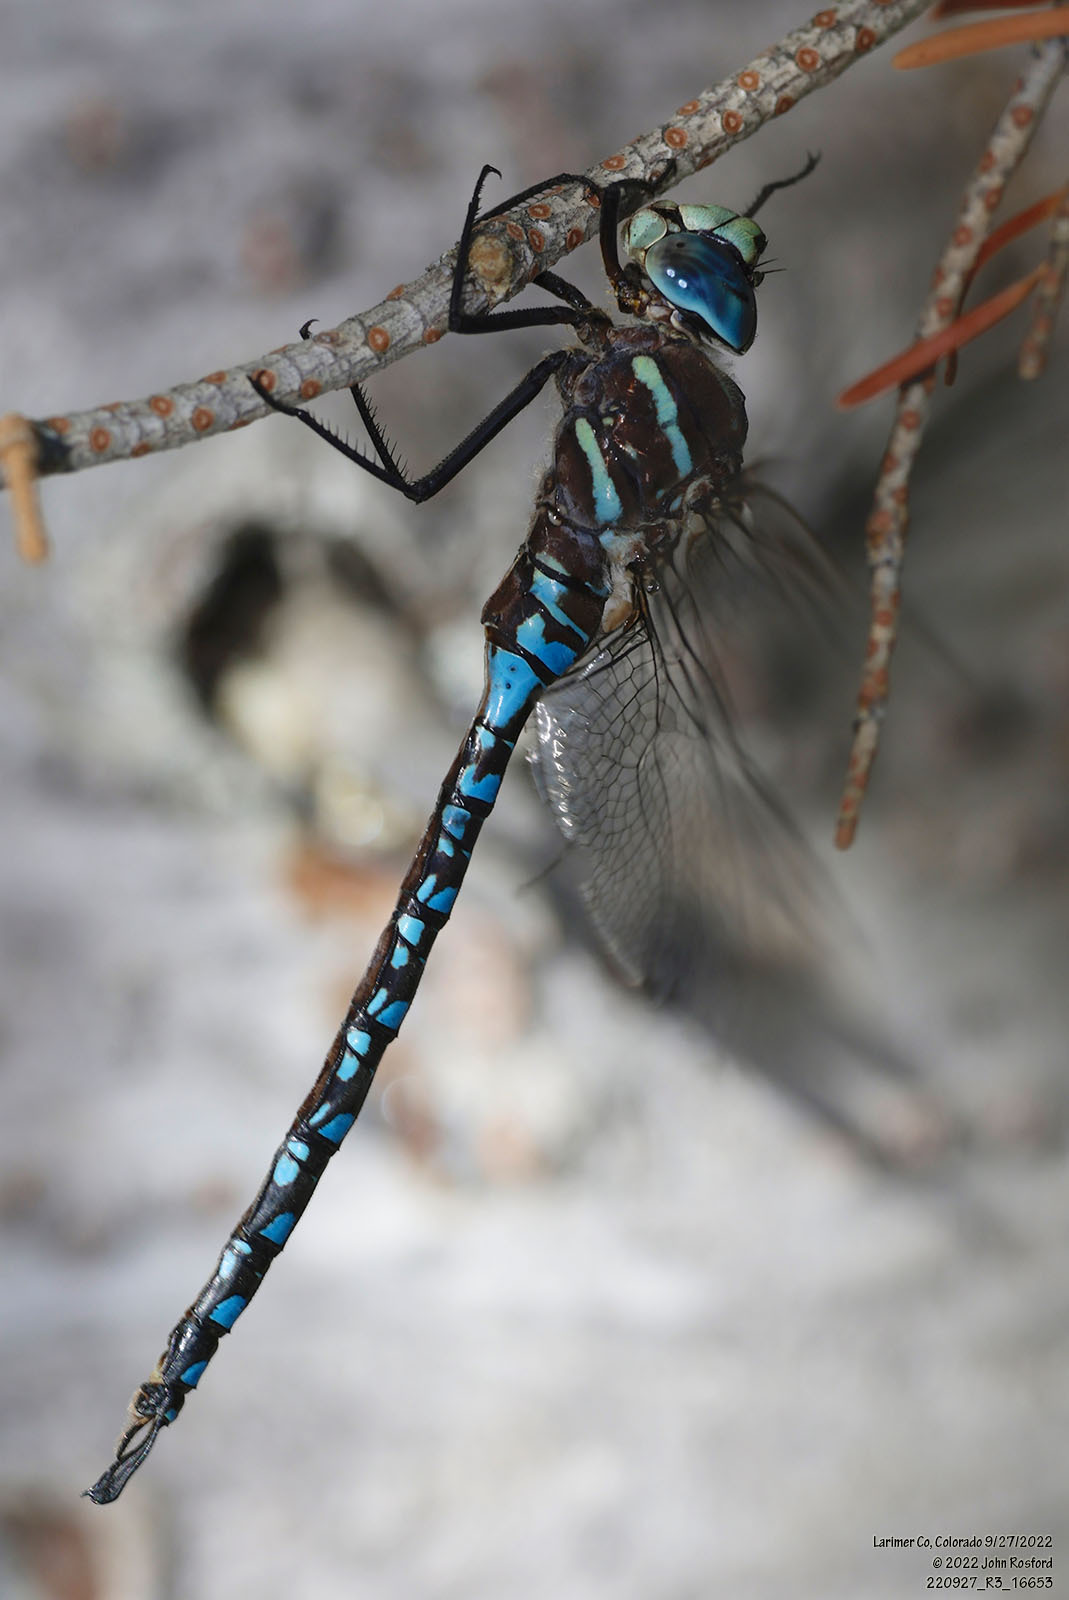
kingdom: Animalia
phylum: Arthropoda
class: Insecta
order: Odonata
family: Aeshnidae
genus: Aeshna
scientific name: Aeshna palmata
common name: Paddle-tailed darner
